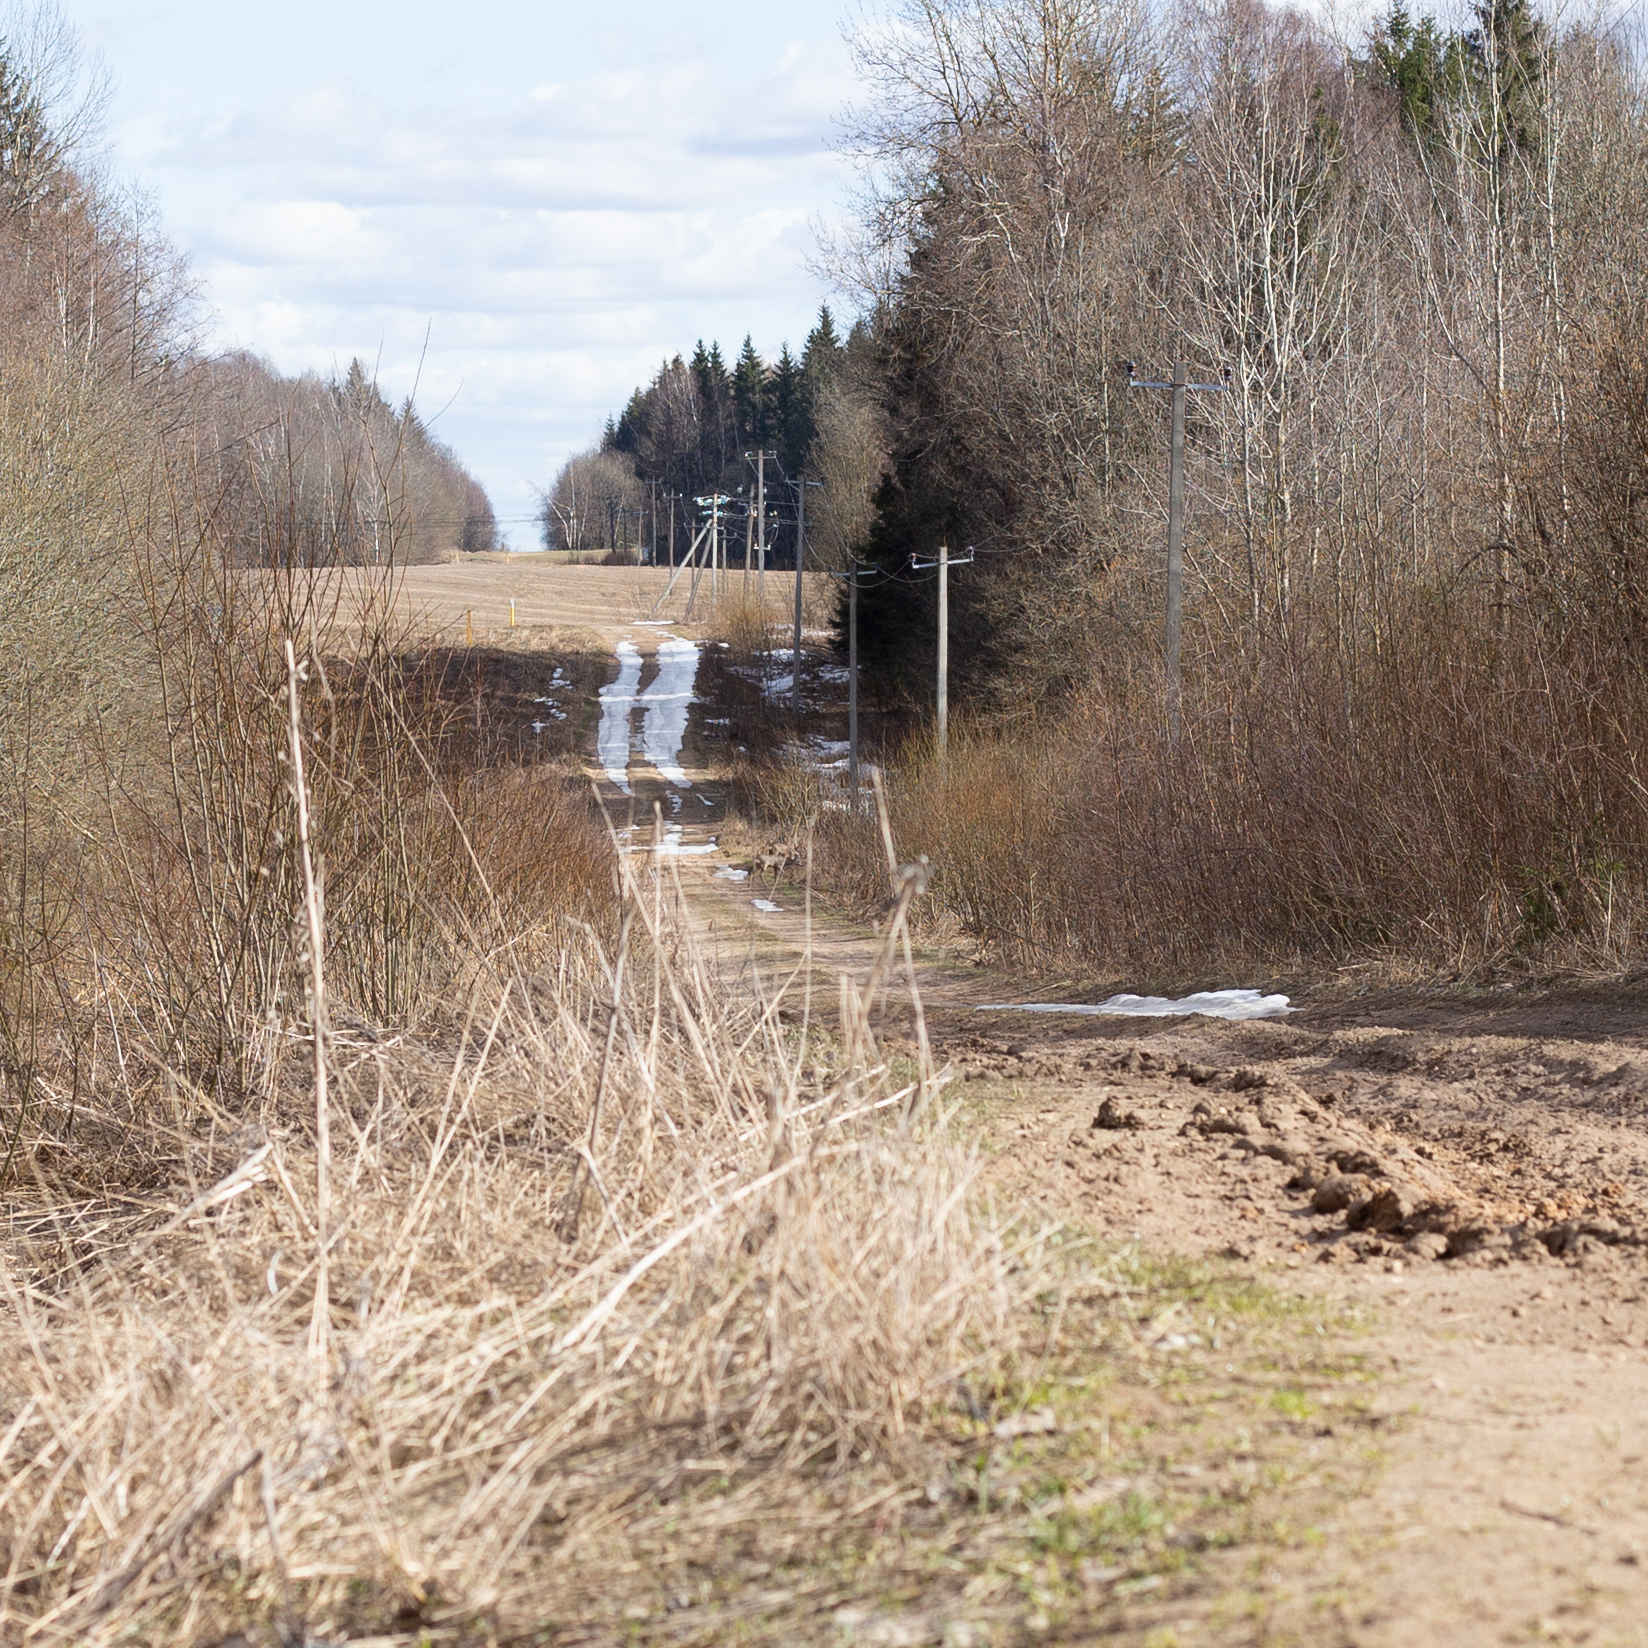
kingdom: Animalia
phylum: Chordata
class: Mammalia
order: Artiodactyla
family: Cervidae
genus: Capreolus
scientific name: Capreolus capreolus
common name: Western roe deer
